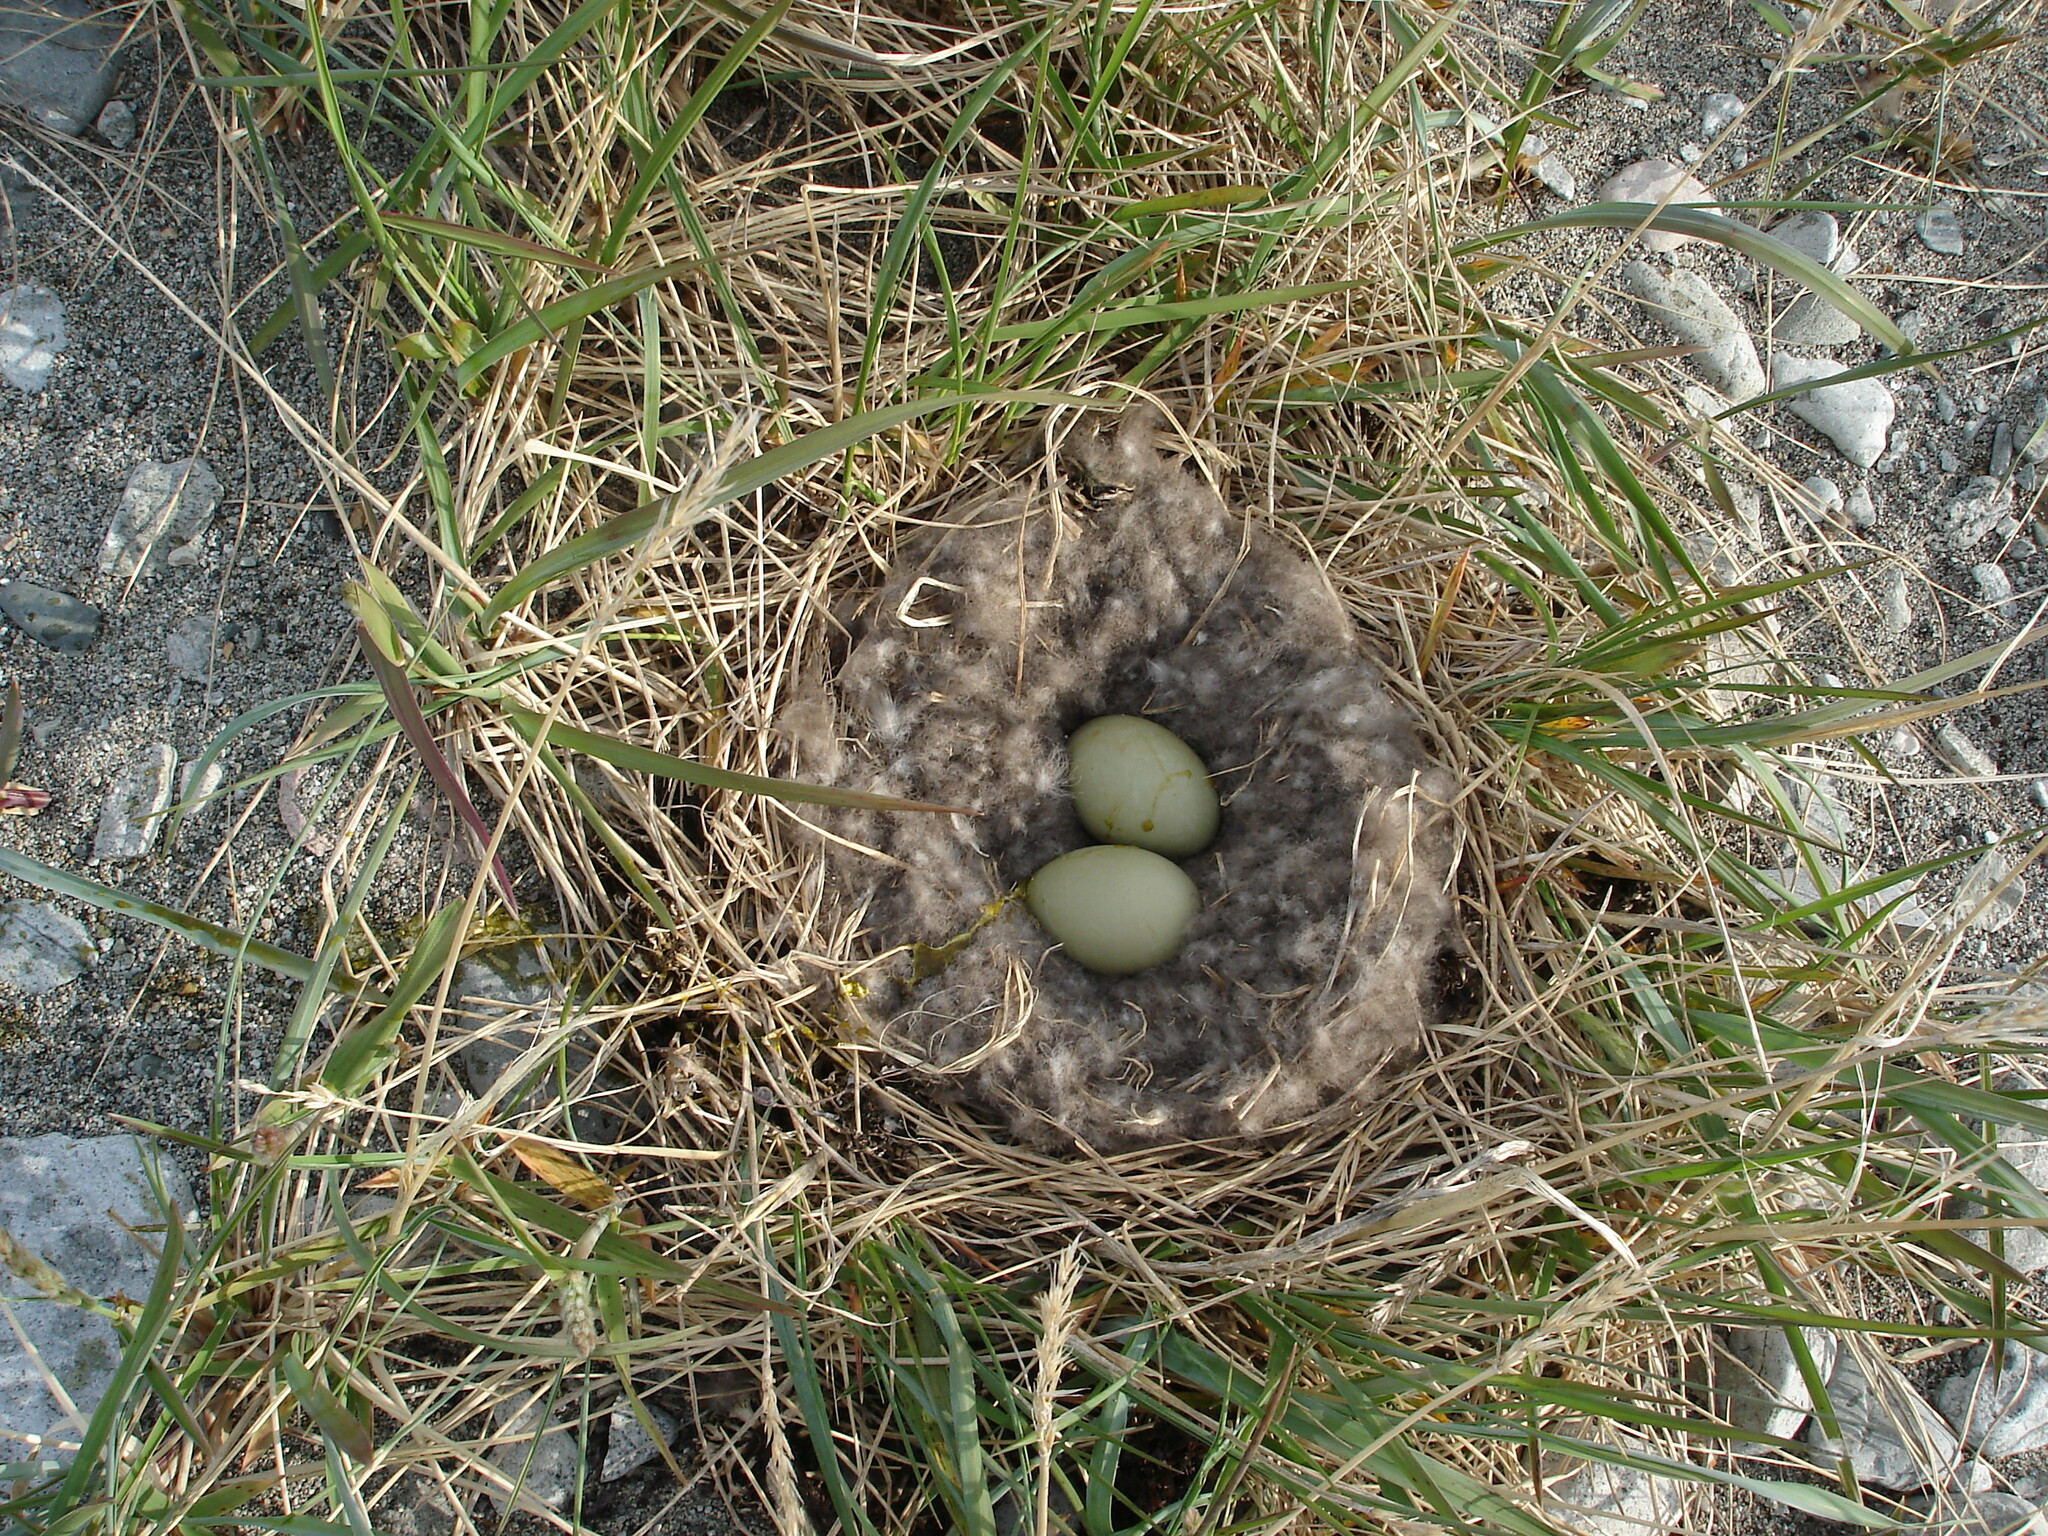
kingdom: Animalia
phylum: Chordata
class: Aves
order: Anseriformes
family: Anatidae
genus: Somateria
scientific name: Somateria mollissima
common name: Common eider
